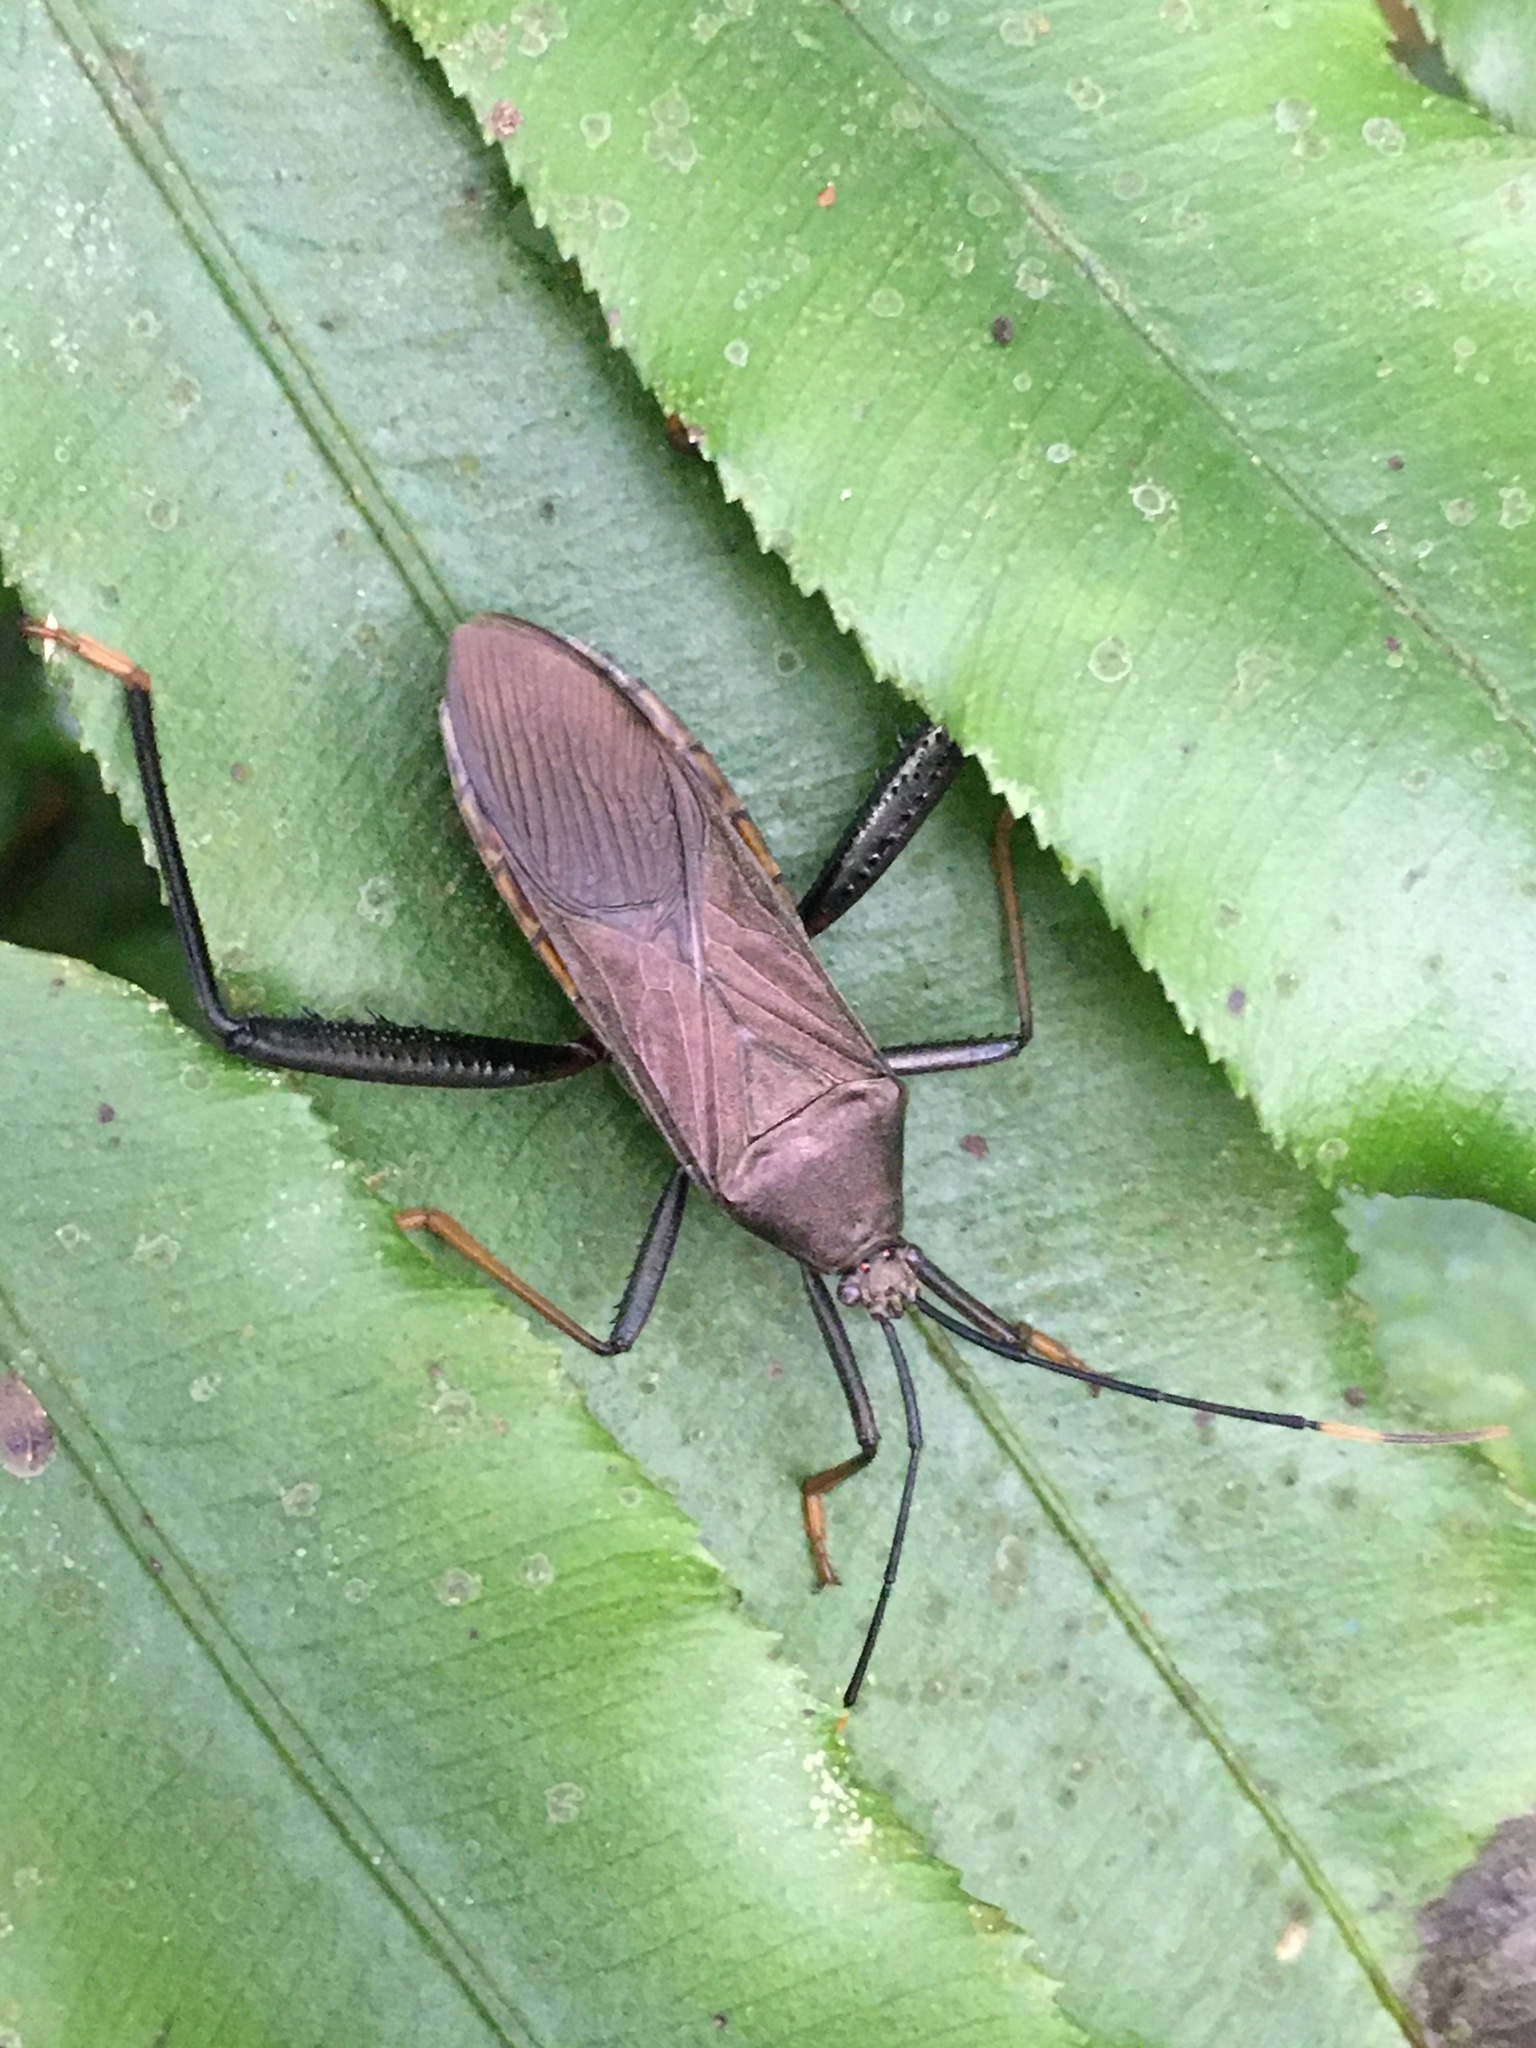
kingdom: Animalia
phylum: Arthropoda
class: Insecta
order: Hemiptera
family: Coreidae
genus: Notobitus
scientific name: Notobitus meleagris
